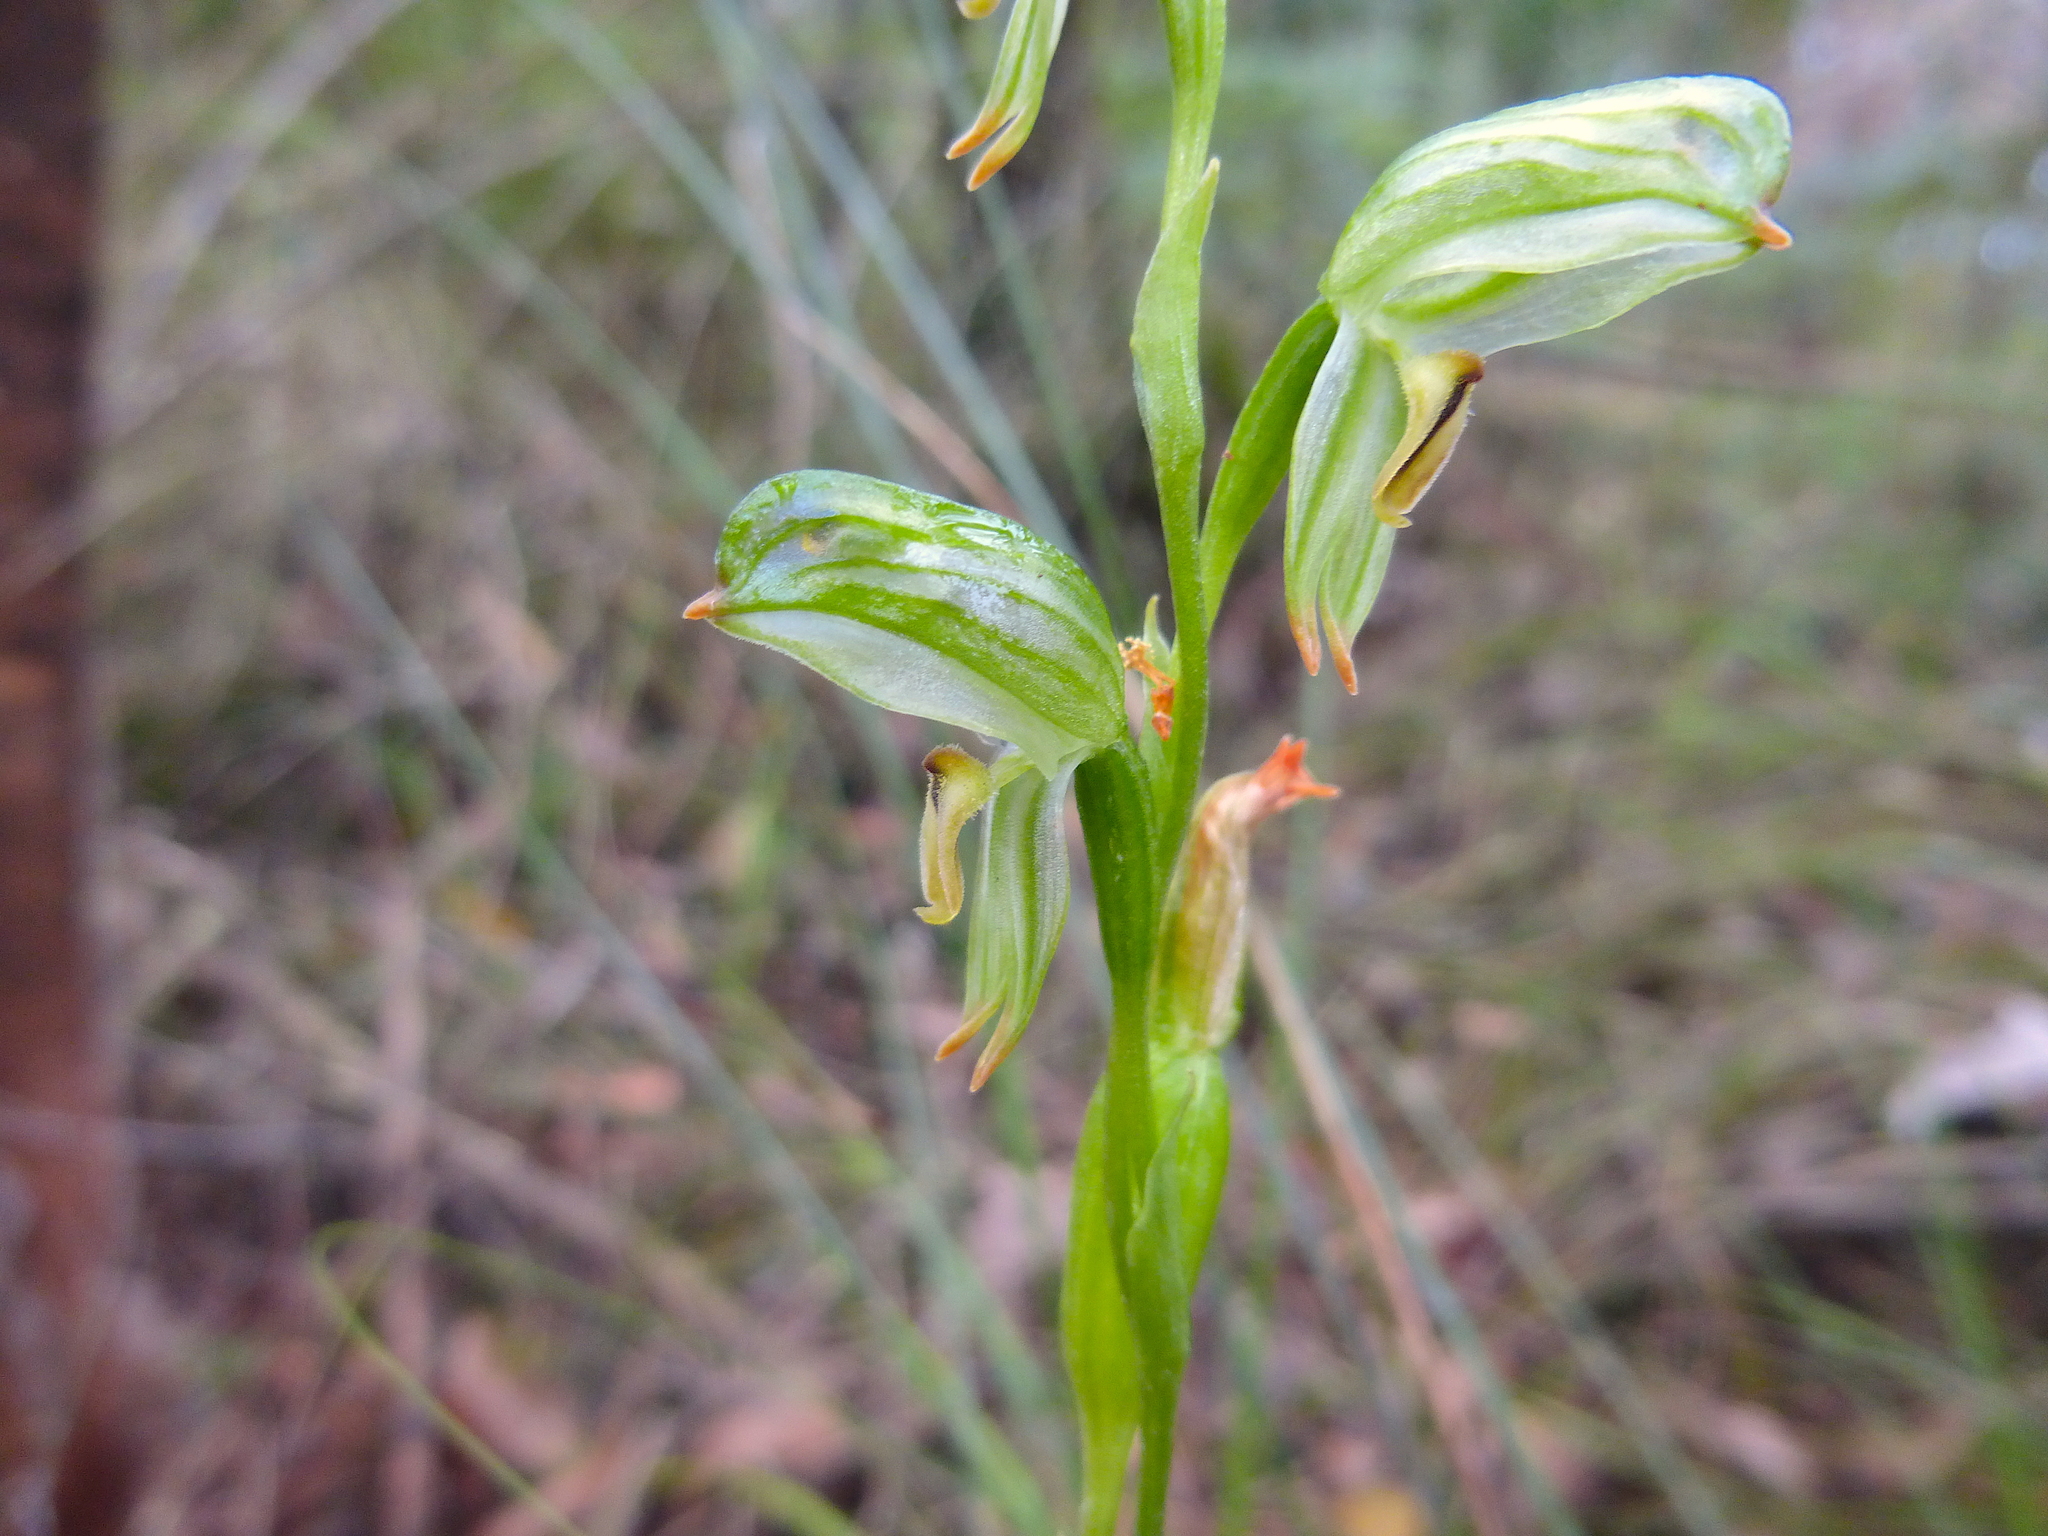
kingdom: Plantae
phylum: Tracheophyta
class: Liliopsida
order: Asparagales
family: Orchidaceae
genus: Pterostylis
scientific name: Pterostylis melagramma
